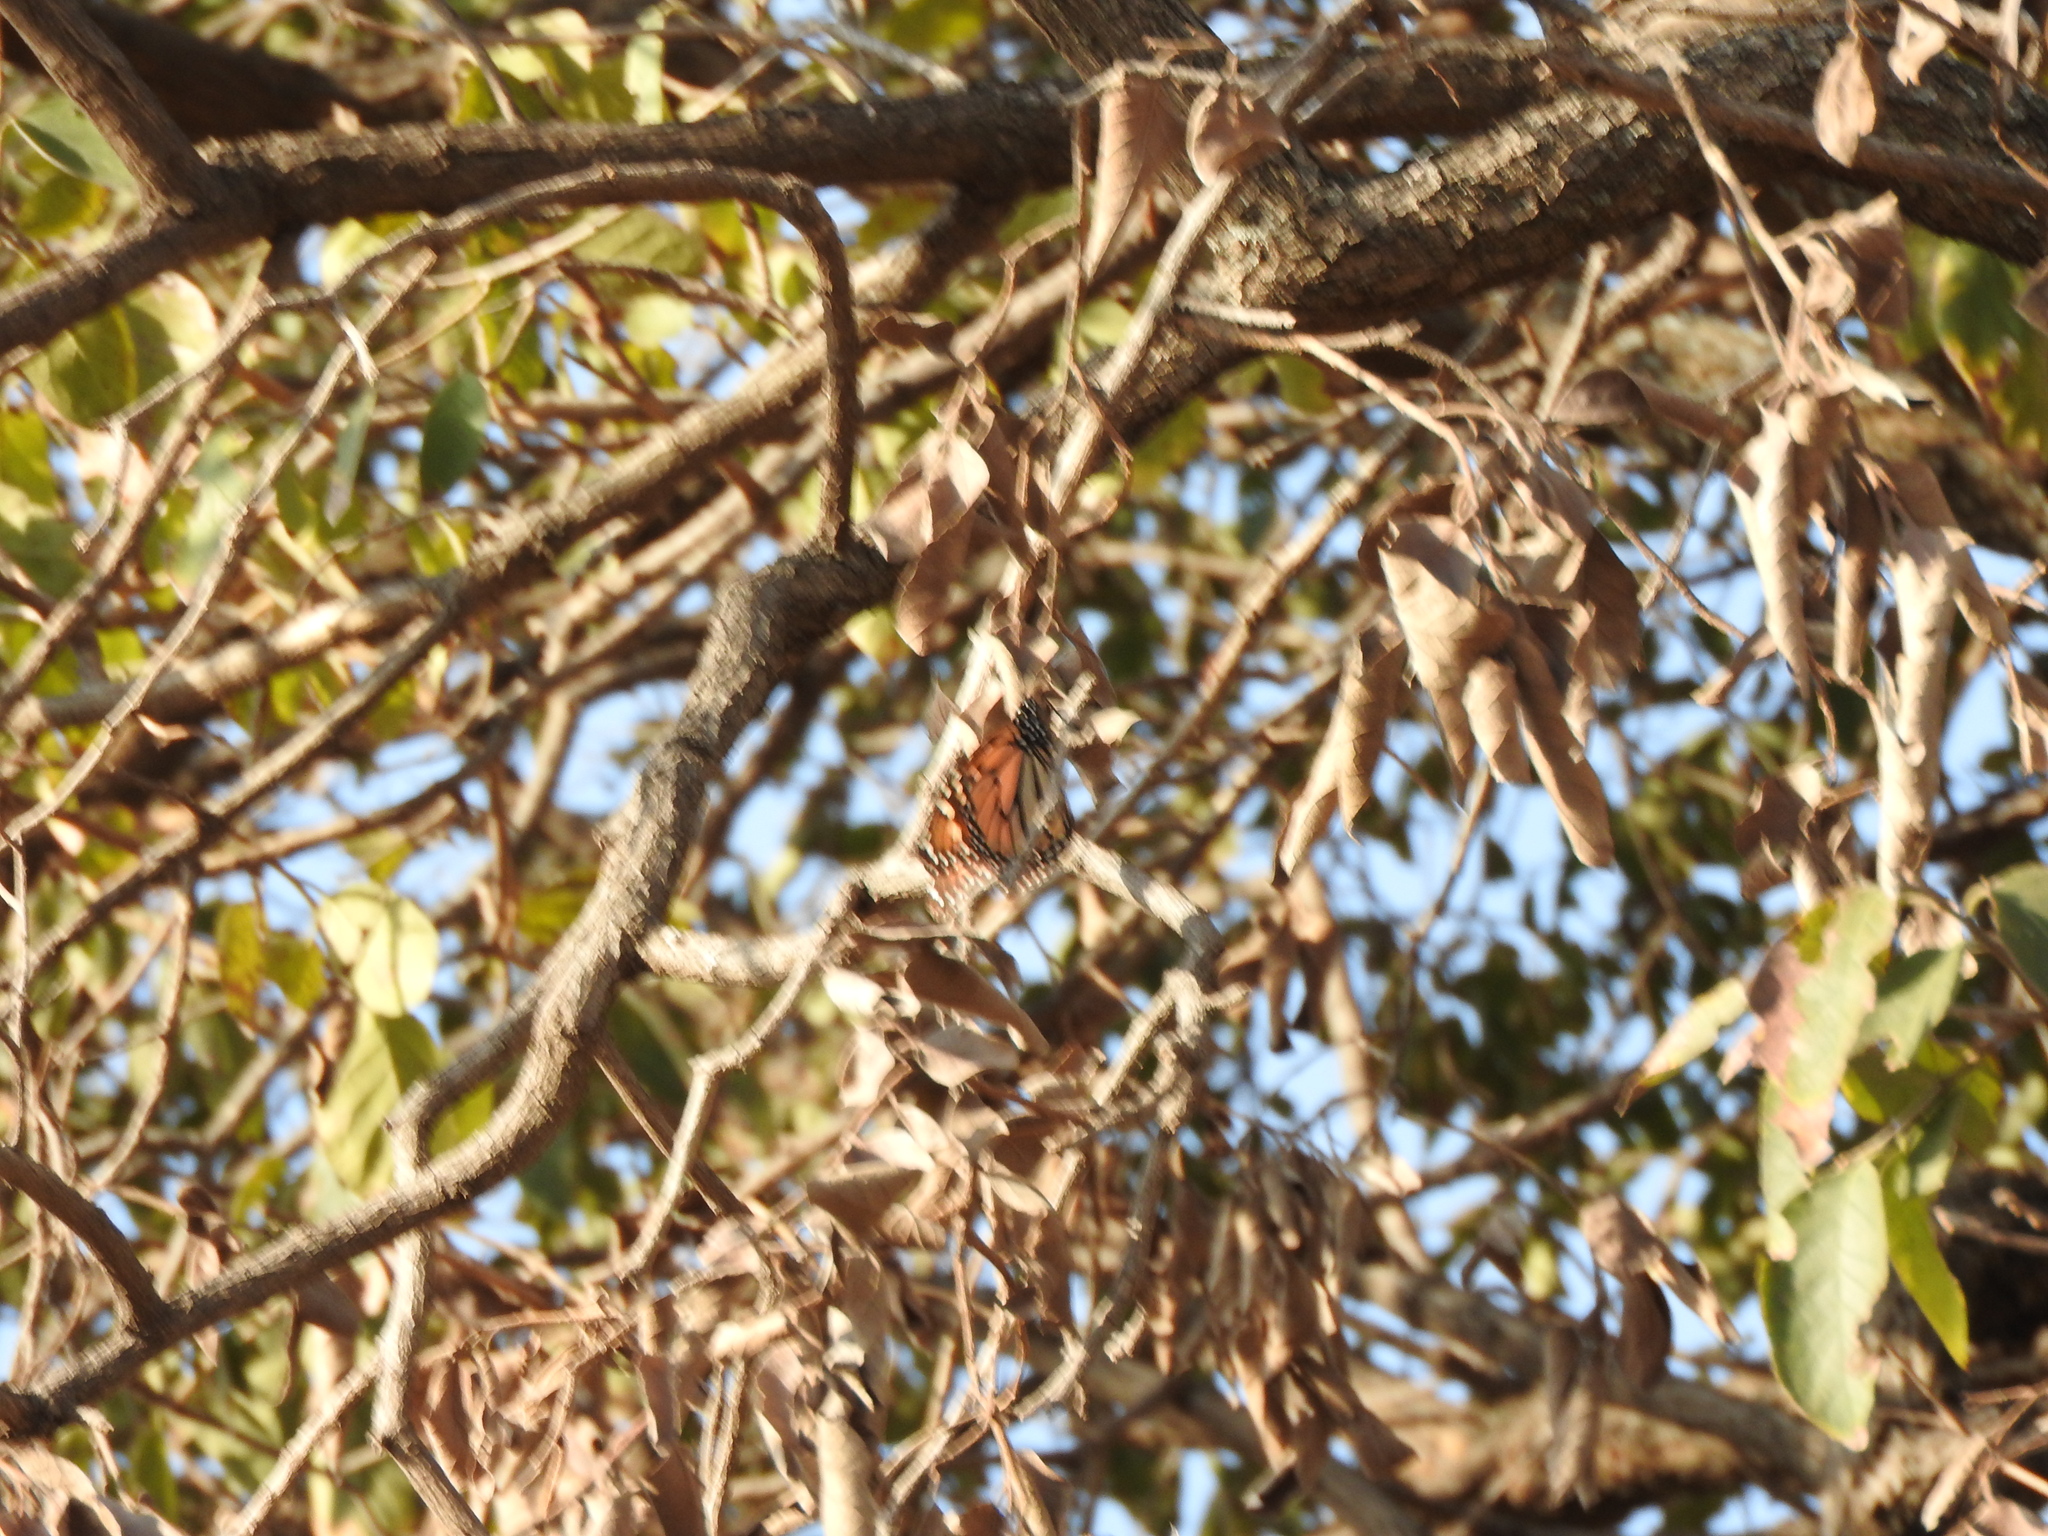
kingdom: Animalia
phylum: Arthropoda
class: Insecta
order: Lepidoptera
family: Nymphalidae
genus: Danaus
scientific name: Danaus plexippus
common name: Monarch
